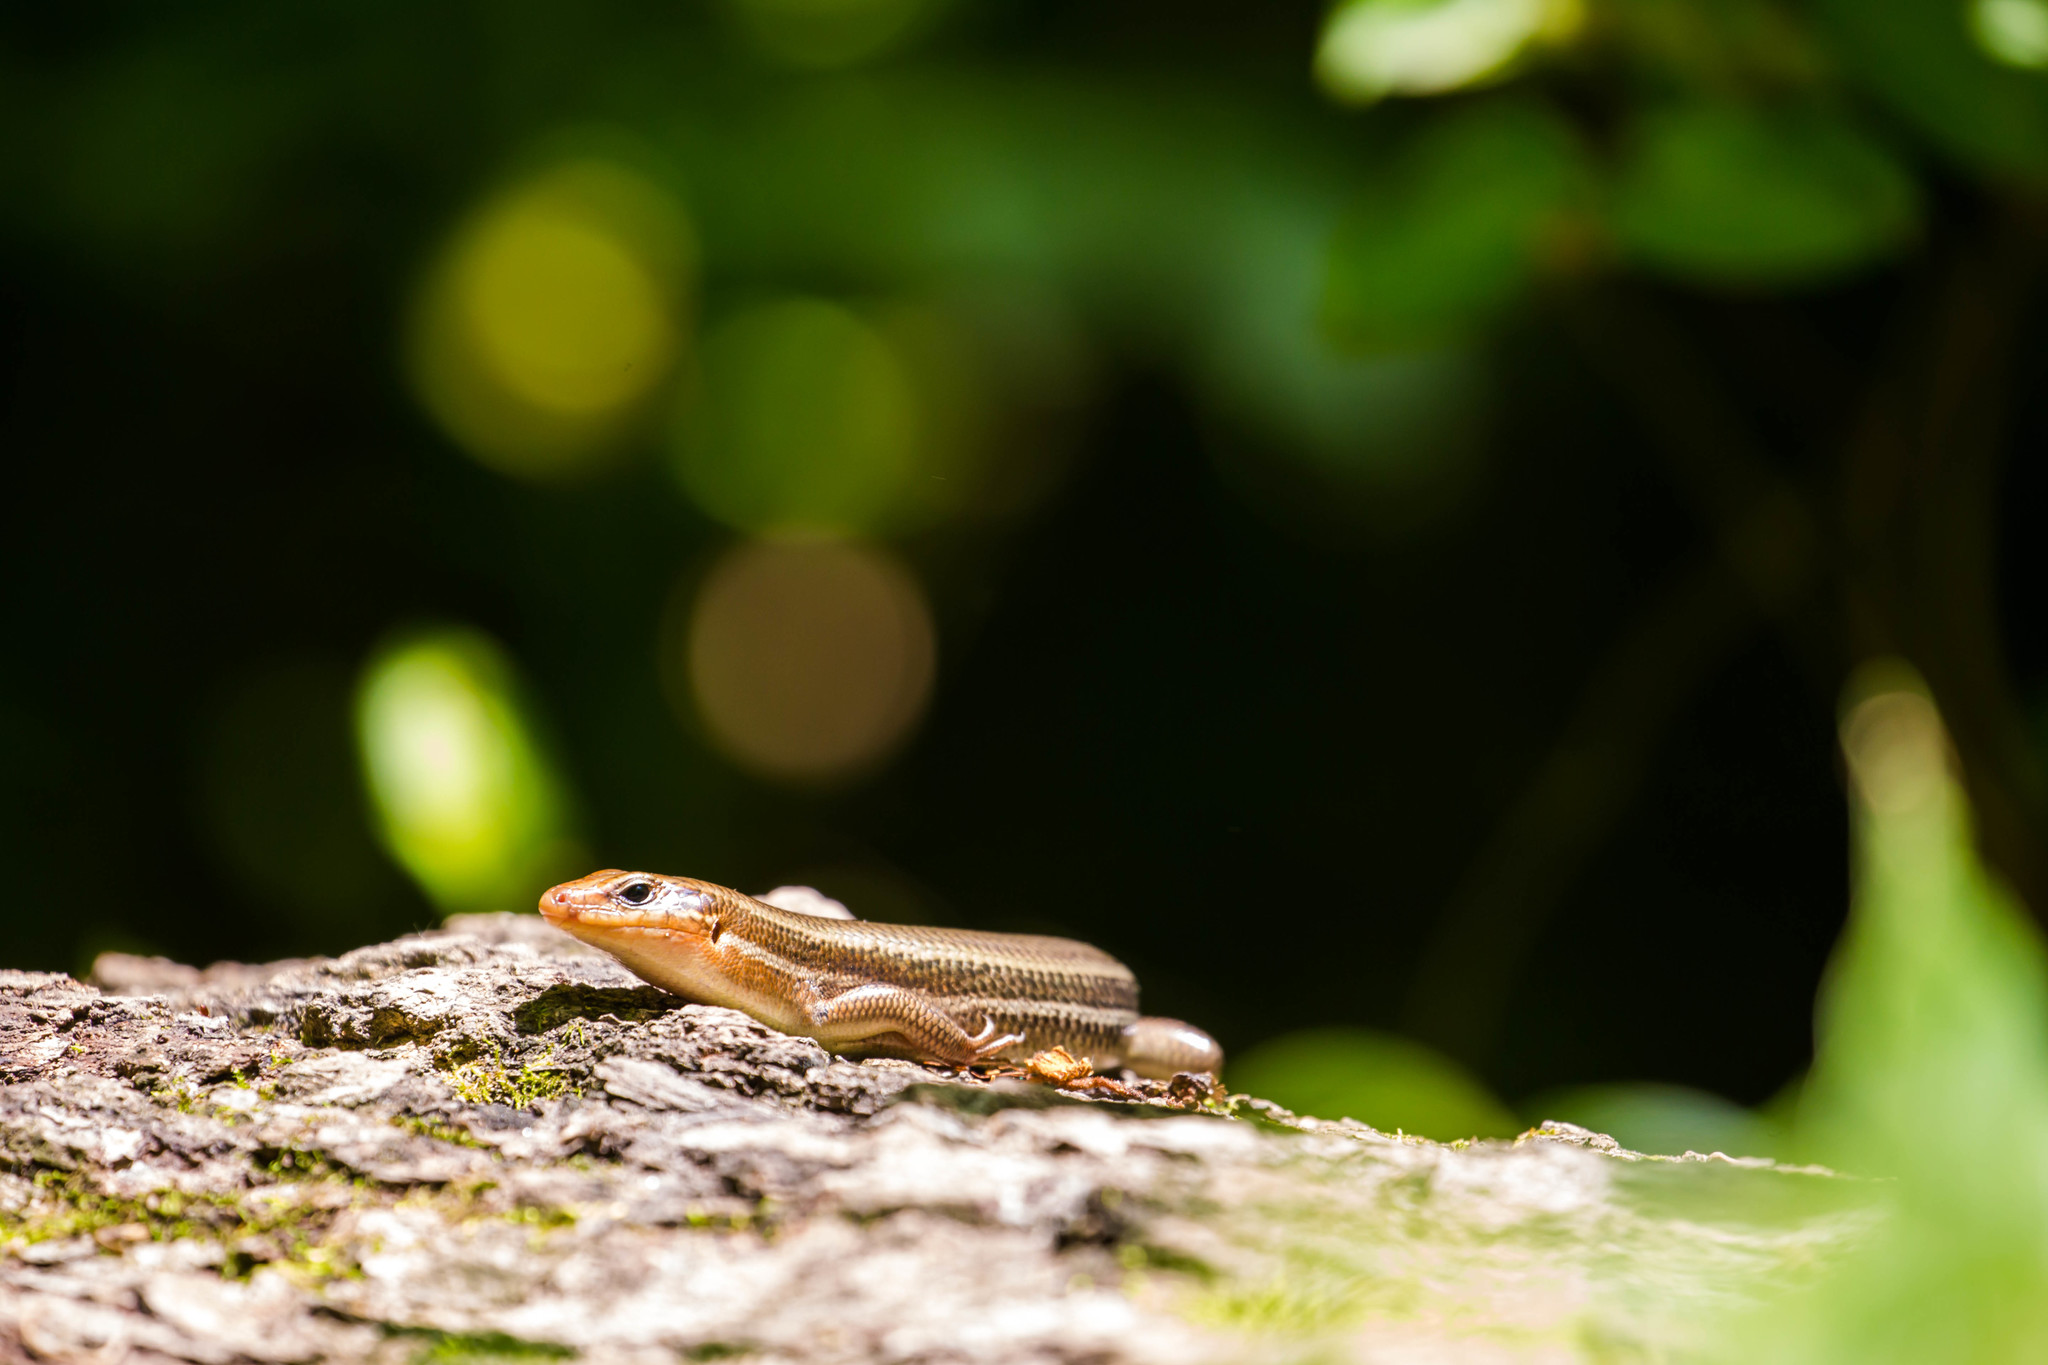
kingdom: Animalia
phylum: Chordata
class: Squamata
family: Scincidae
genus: Plestiodon
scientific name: Plestiodon laticeps
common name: Broadhead skink
